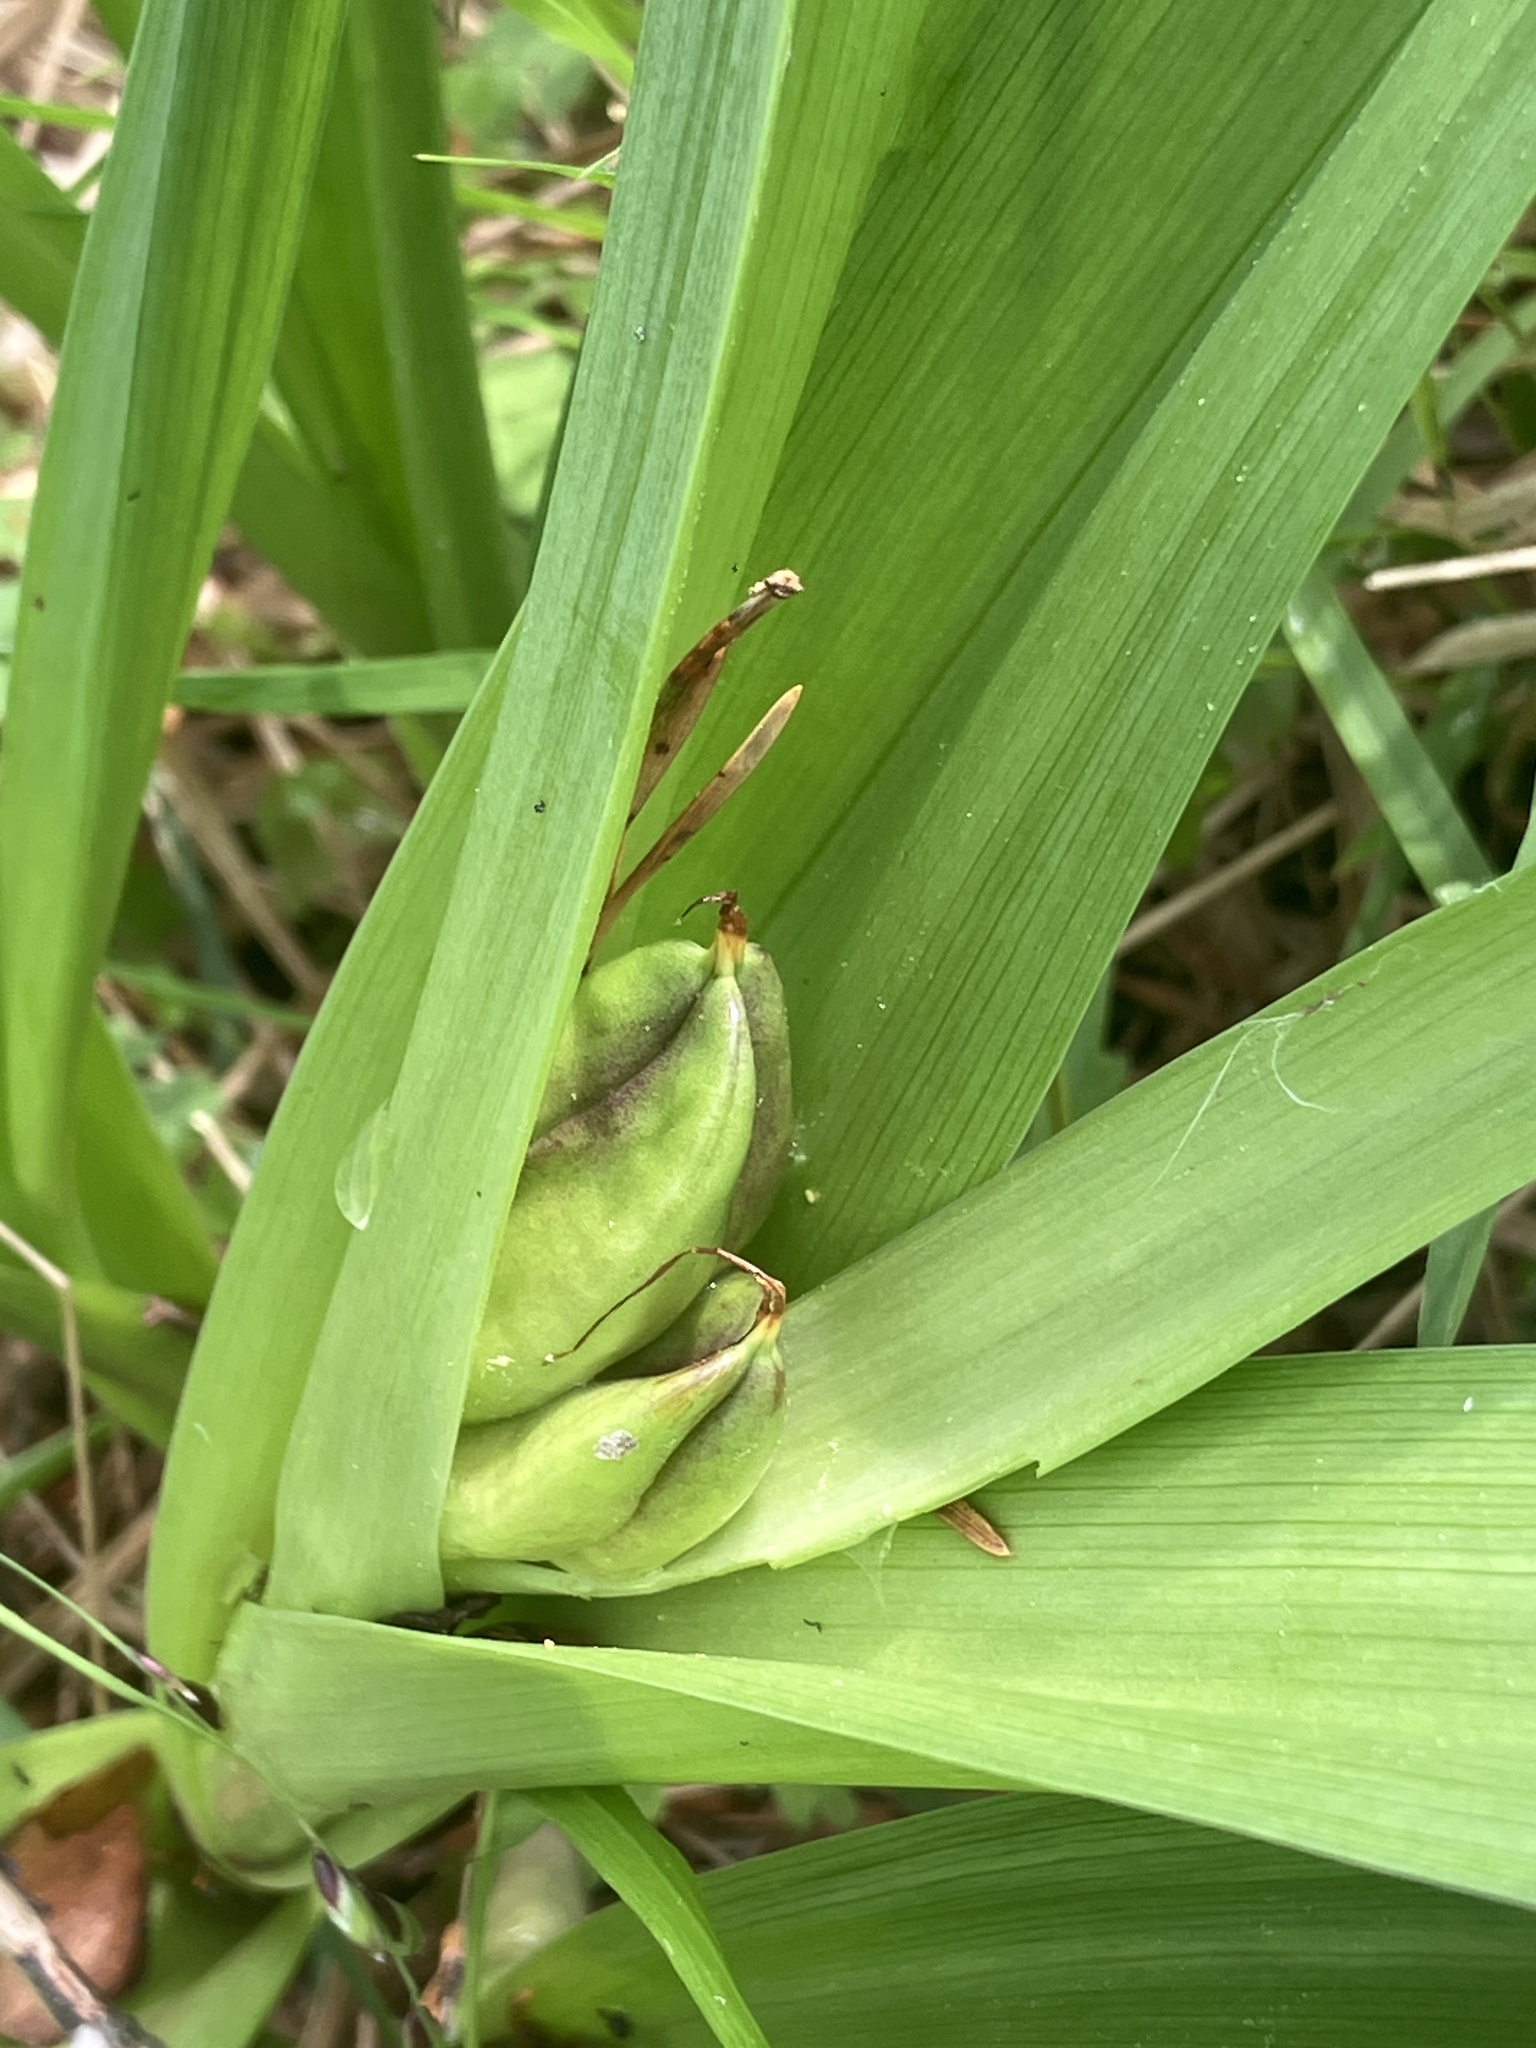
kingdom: Plantae
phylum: Tracheophyta
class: Liliopsida
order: Liliales
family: Colchicaceae
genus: Colchicum
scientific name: Colchicum autumnale
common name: Autumn crocus
